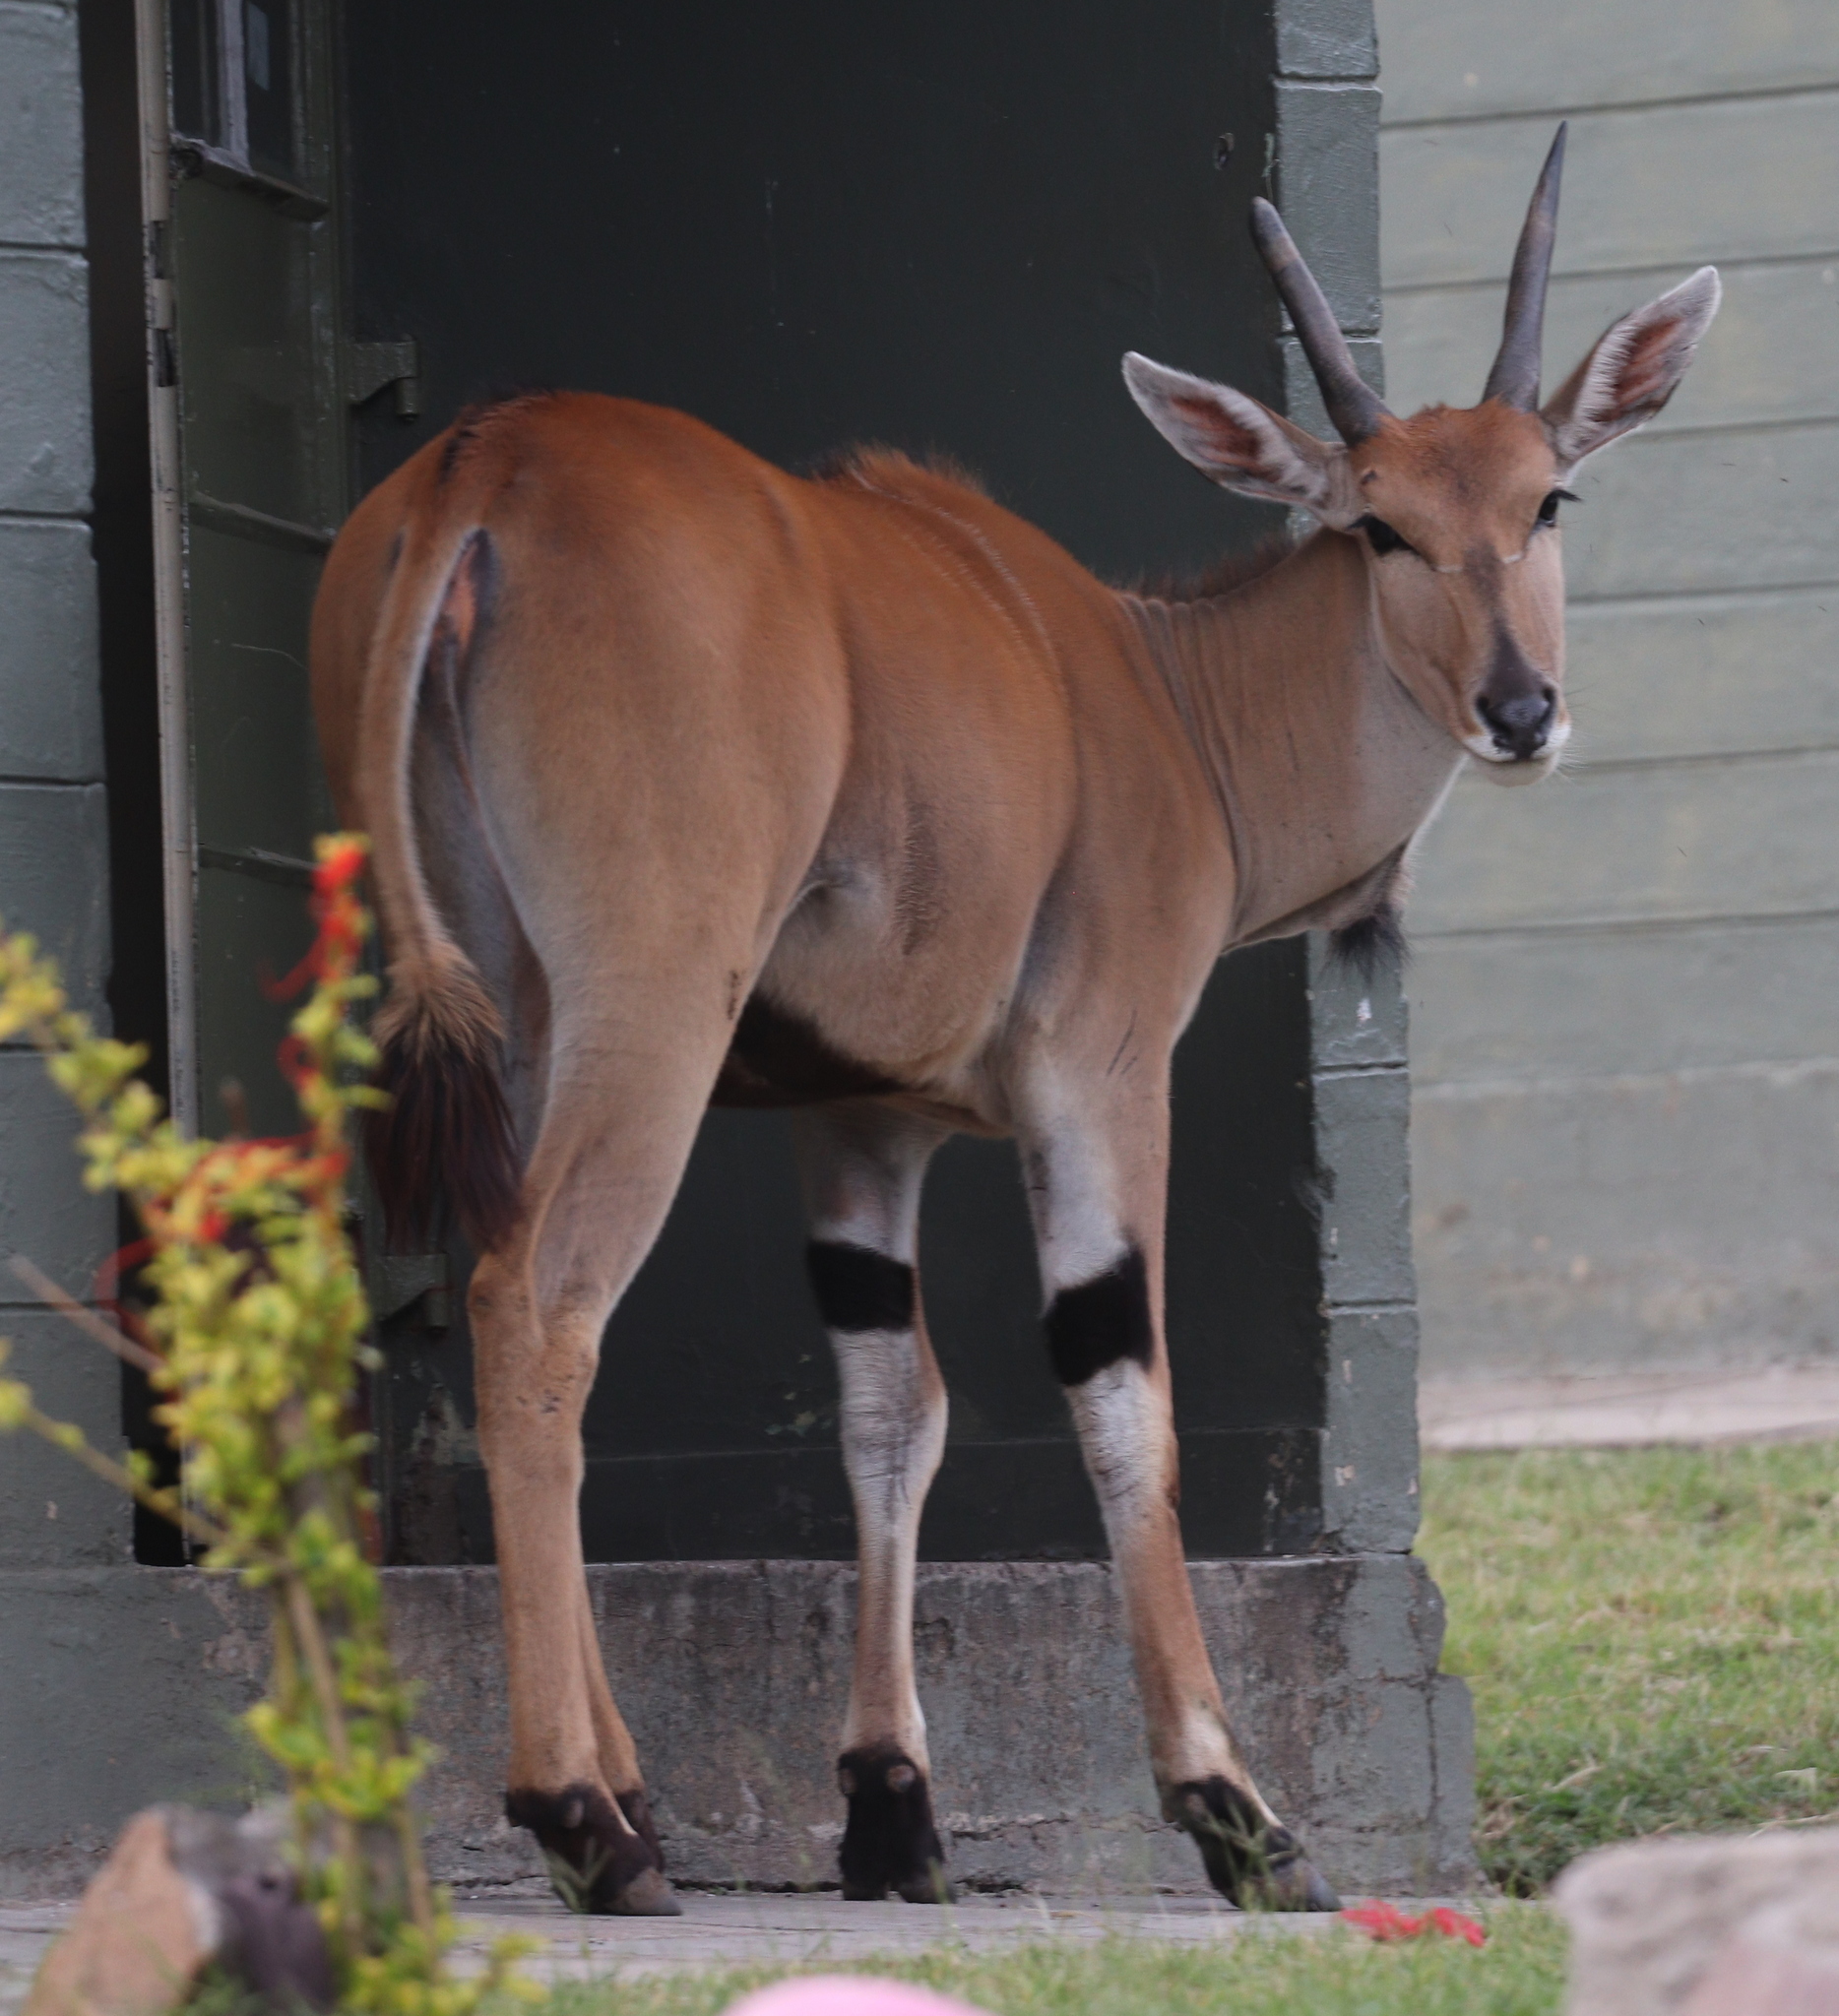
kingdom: Animalia
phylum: Chordata
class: Mammalia
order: Artiodactyla
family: Bovidae
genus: Taurotragus
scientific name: Taurotragus oryx
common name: Common eland
